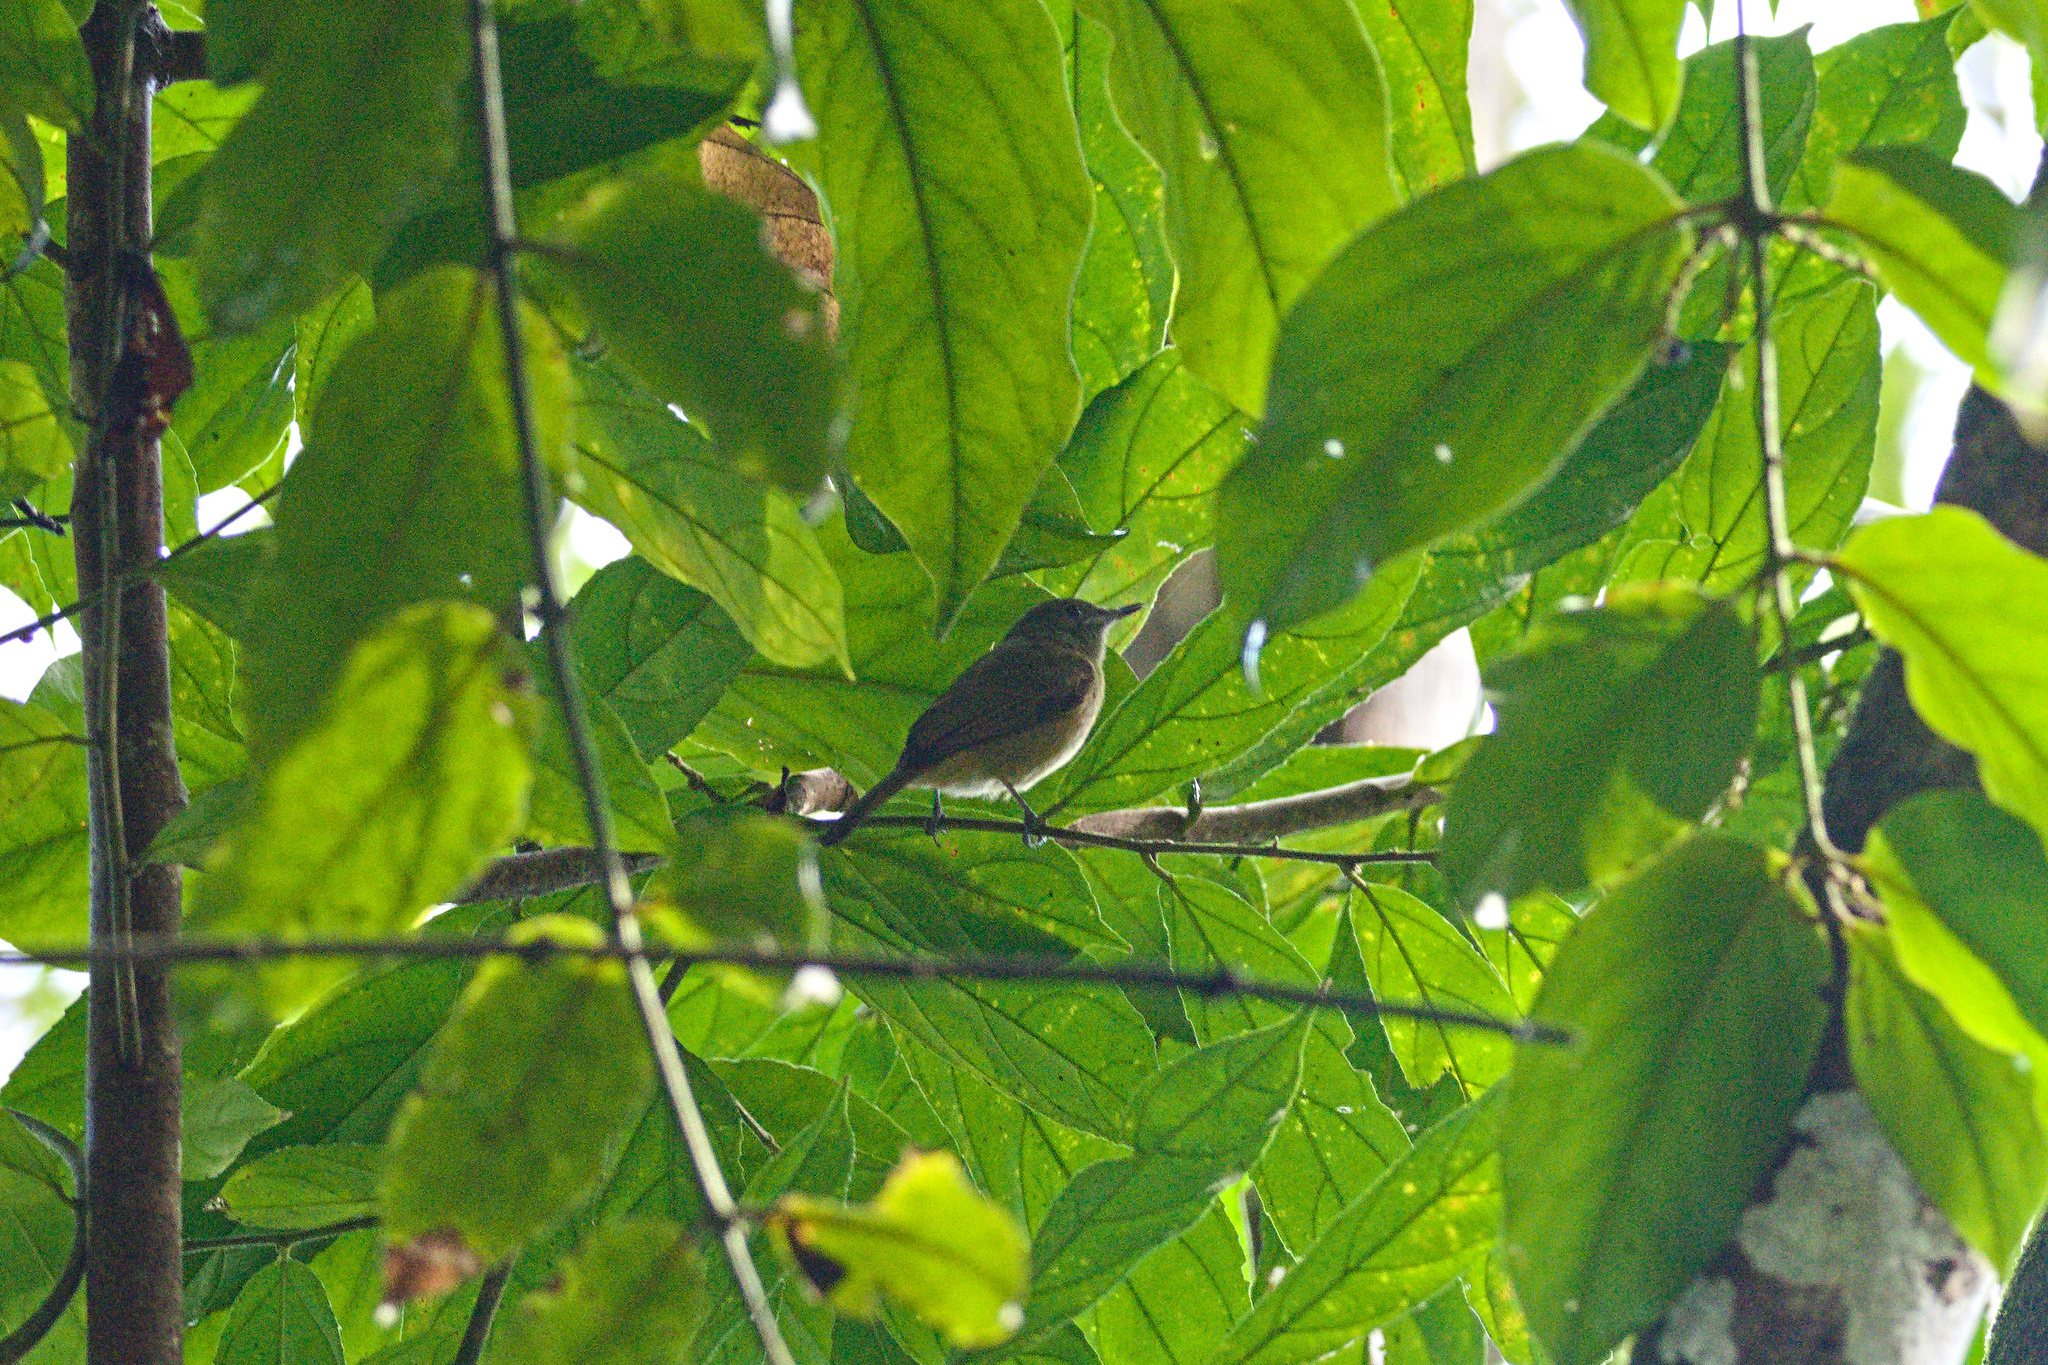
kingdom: Animalia
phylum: Chordata
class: Aves
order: Passeriformes
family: Tyrannidae
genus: Mionectes
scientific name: Mionectes oleagineus
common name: Ochre-bellied flycatcher
